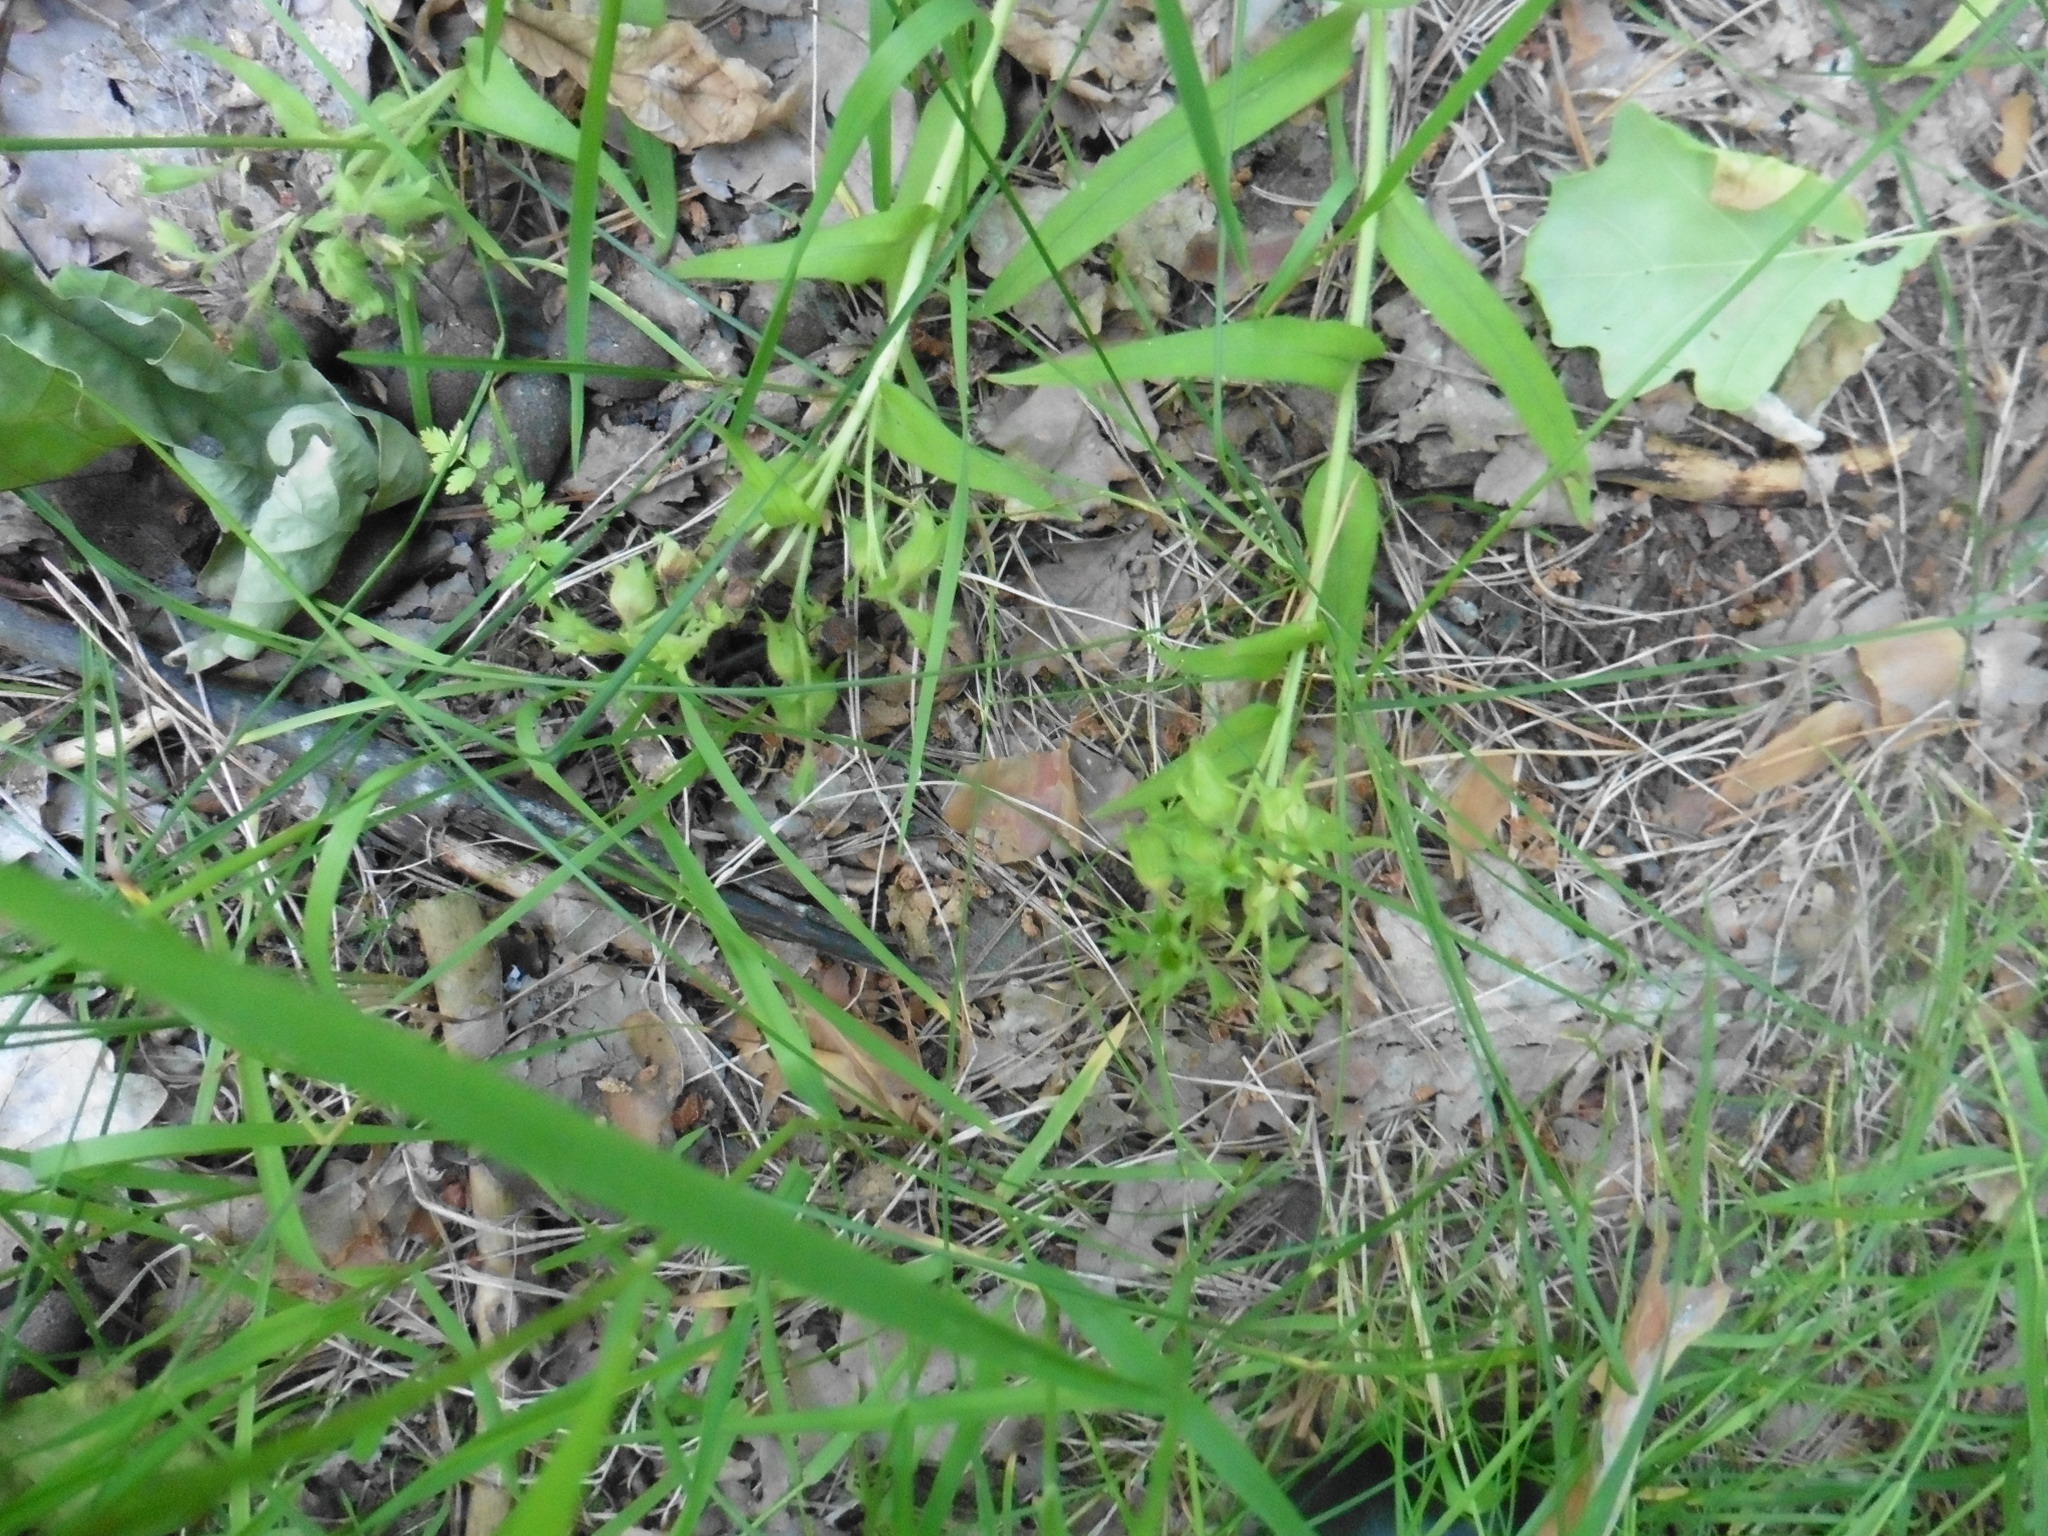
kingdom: Plantae
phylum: Tracheophyta
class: Magnoliopsida
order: Boraginales
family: Boraginaceae
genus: Pulmonaria
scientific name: Pulmonaria angustifolia
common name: Blue cowslip
